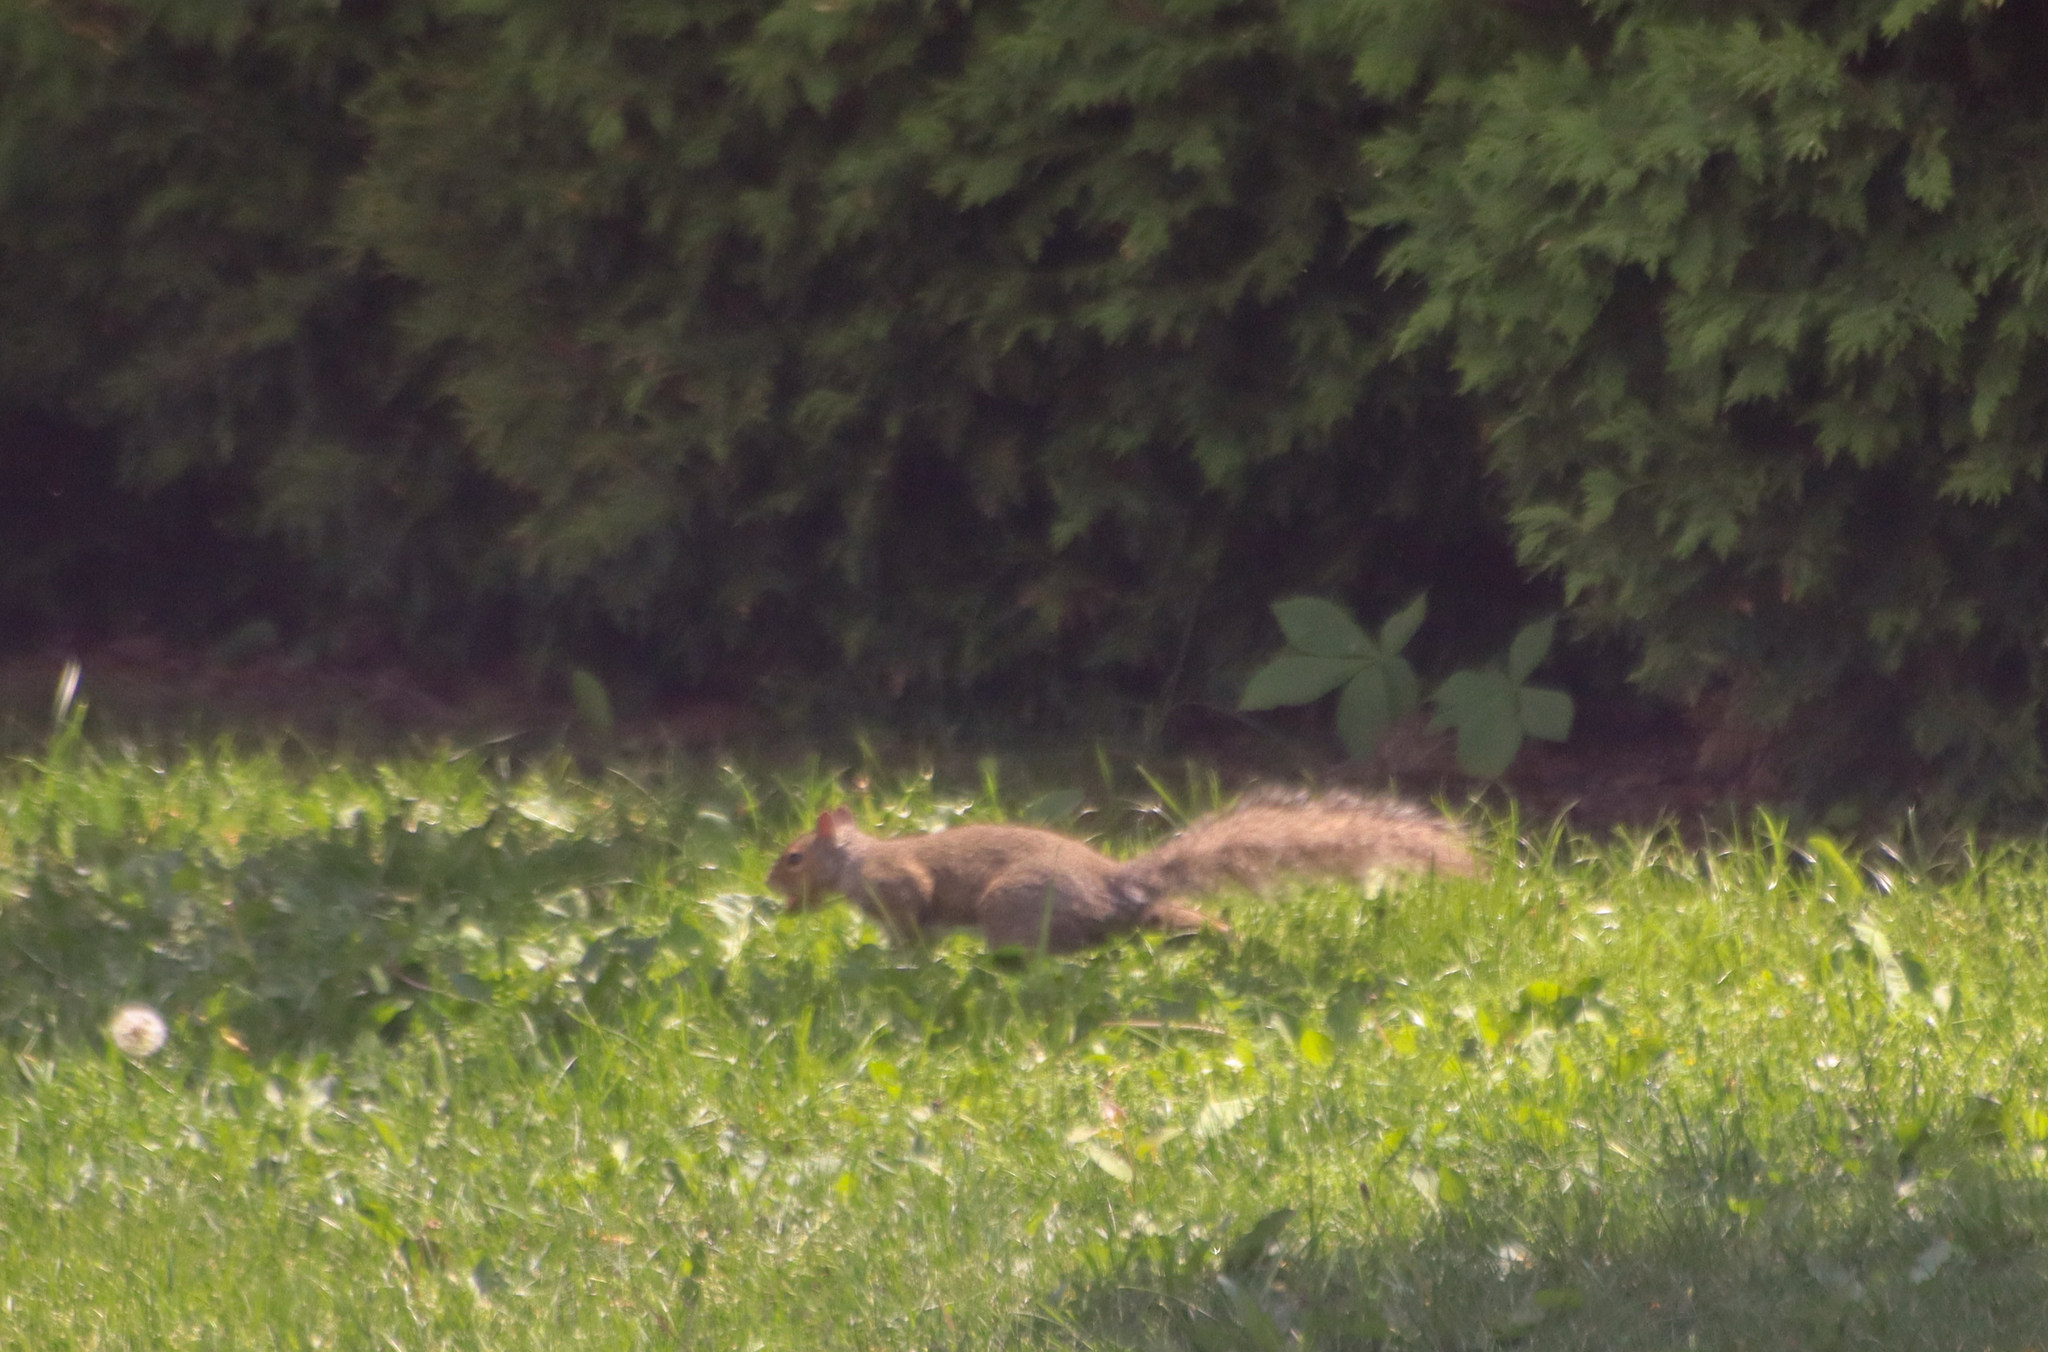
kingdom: Animalia
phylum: Chordata
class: Mammalia
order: Rodentia
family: Sciuridae
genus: Sciurus
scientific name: Sciurus carolinensis
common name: Eastern gray squirrel
